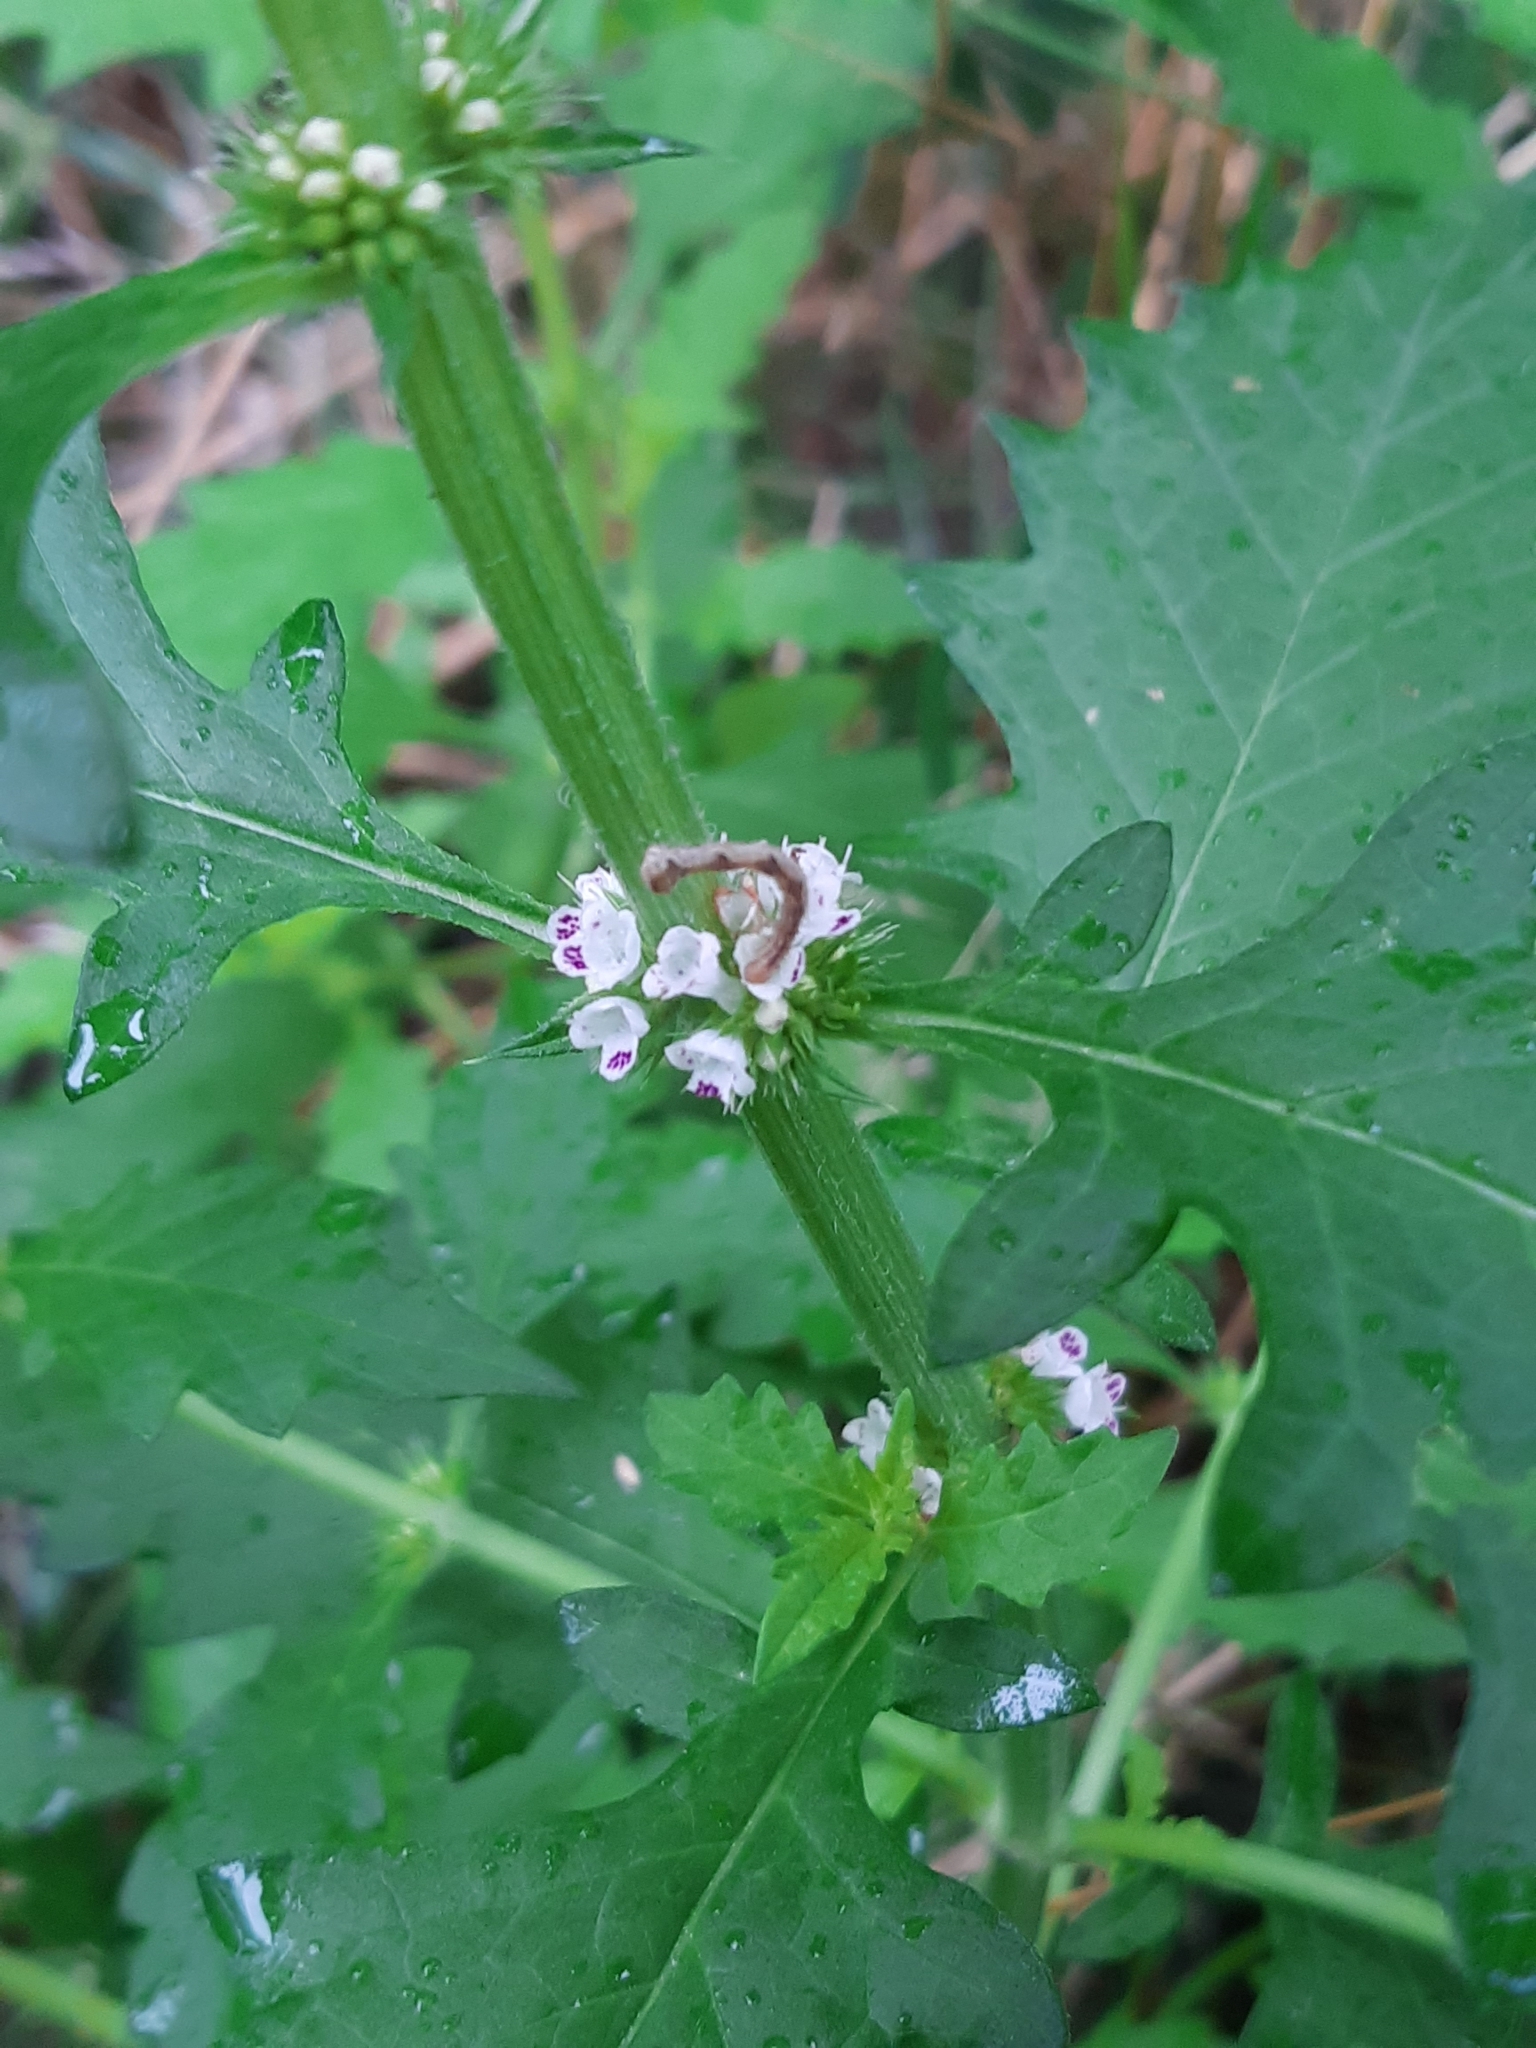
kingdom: Plantae
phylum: Tracheophyta
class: Magnoliopsida
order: Lamiales
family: Lamiaceae
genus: Lycopus
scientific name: Lycopus europaeus
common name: European bugleweed
